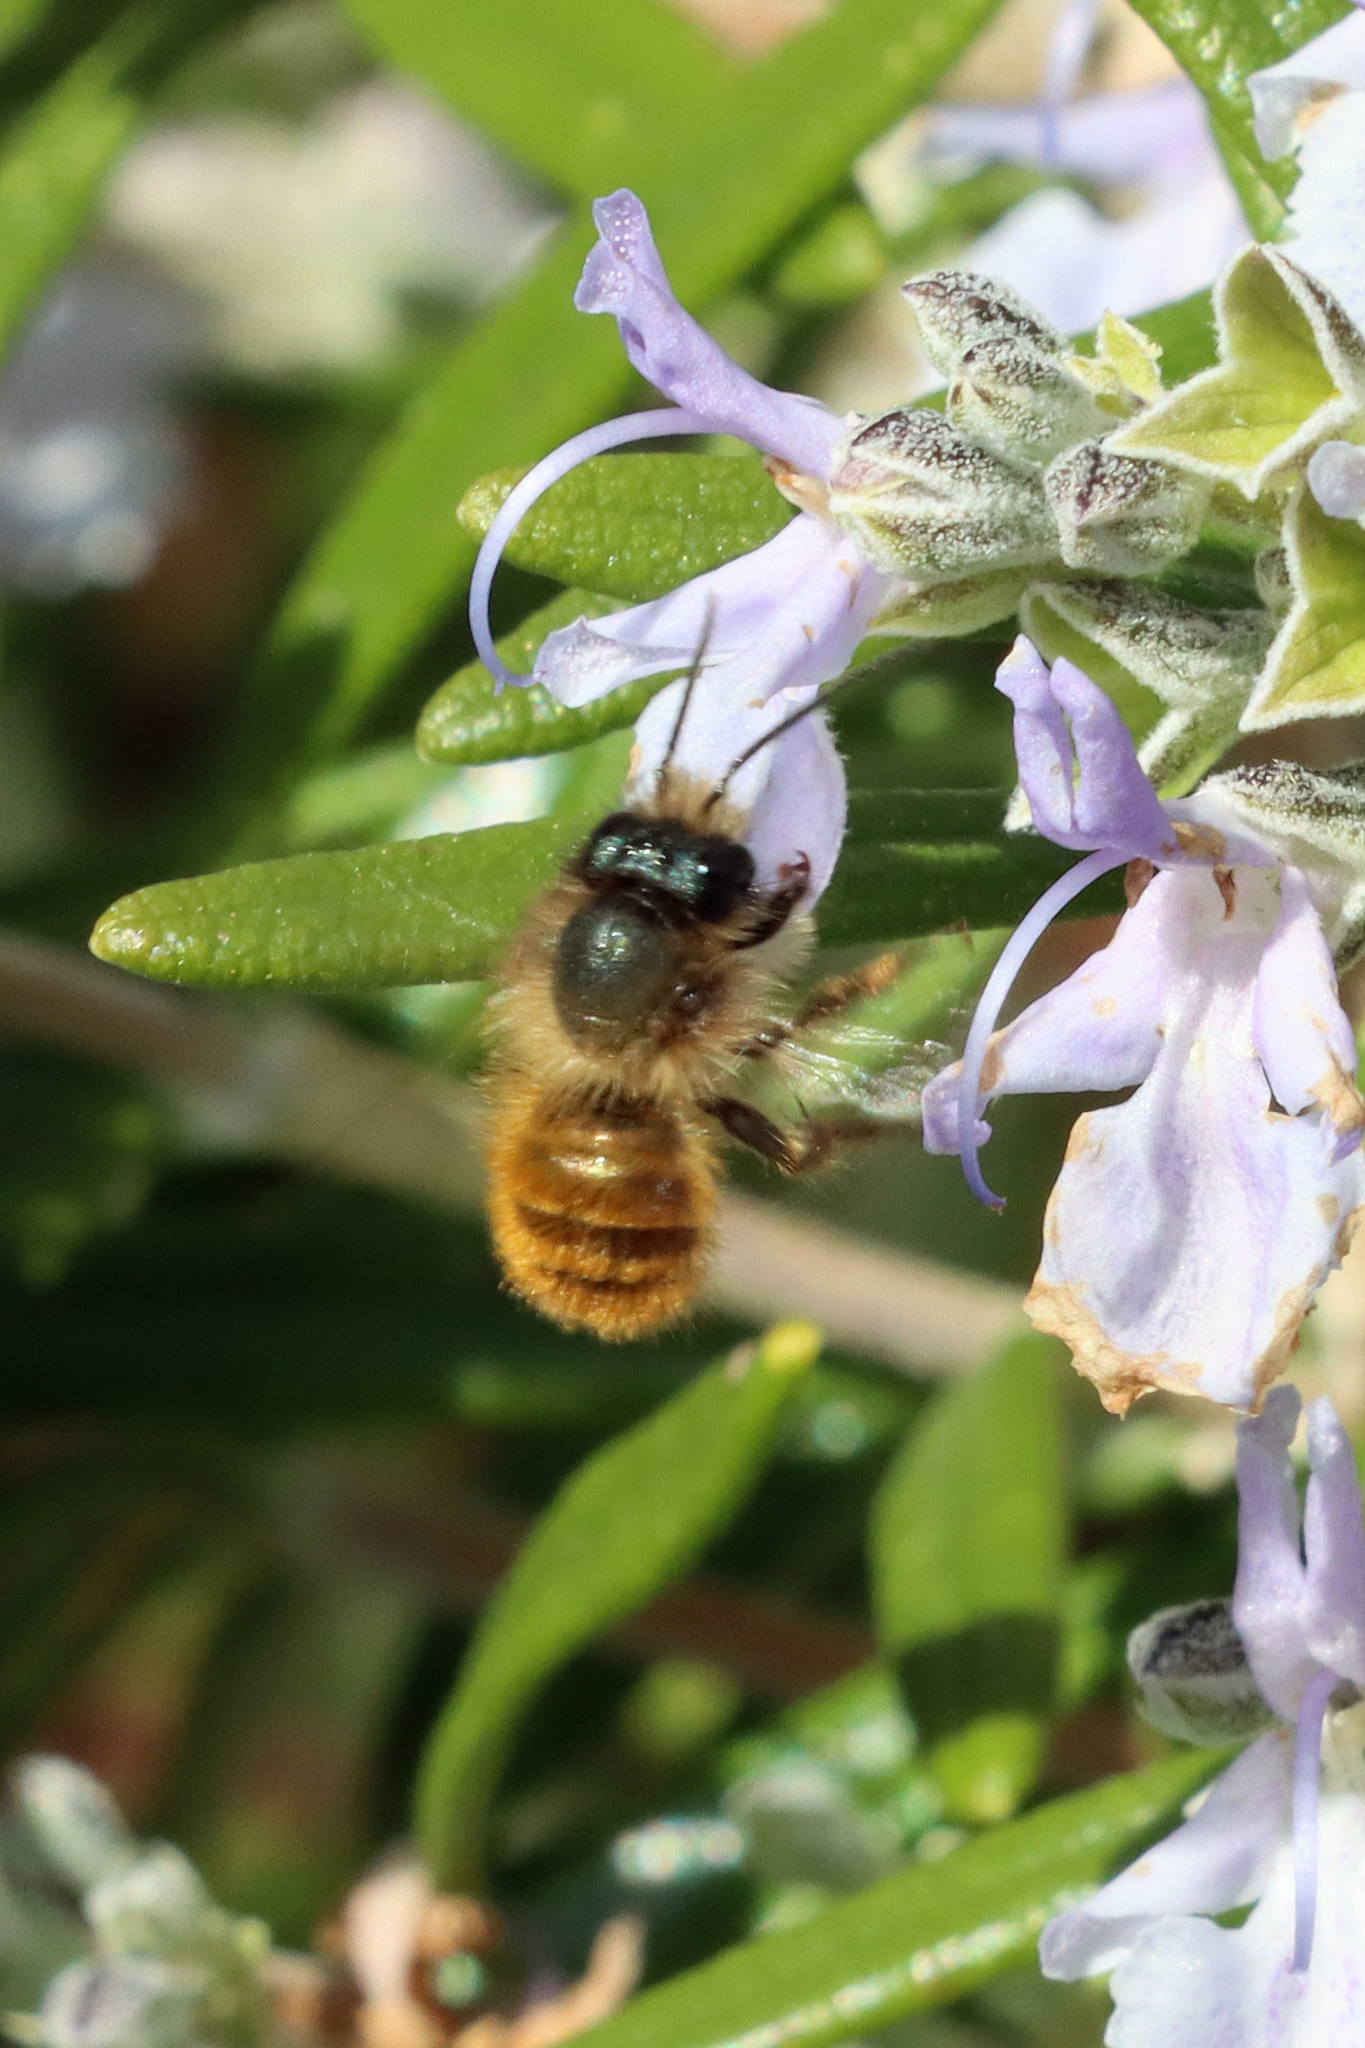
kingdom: Animalia
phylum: Arthropoda
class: Insecta
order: Hymenoptera
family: Megachilidae
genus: Osmia
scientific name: Osmia bicornis
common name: Red mason bee
